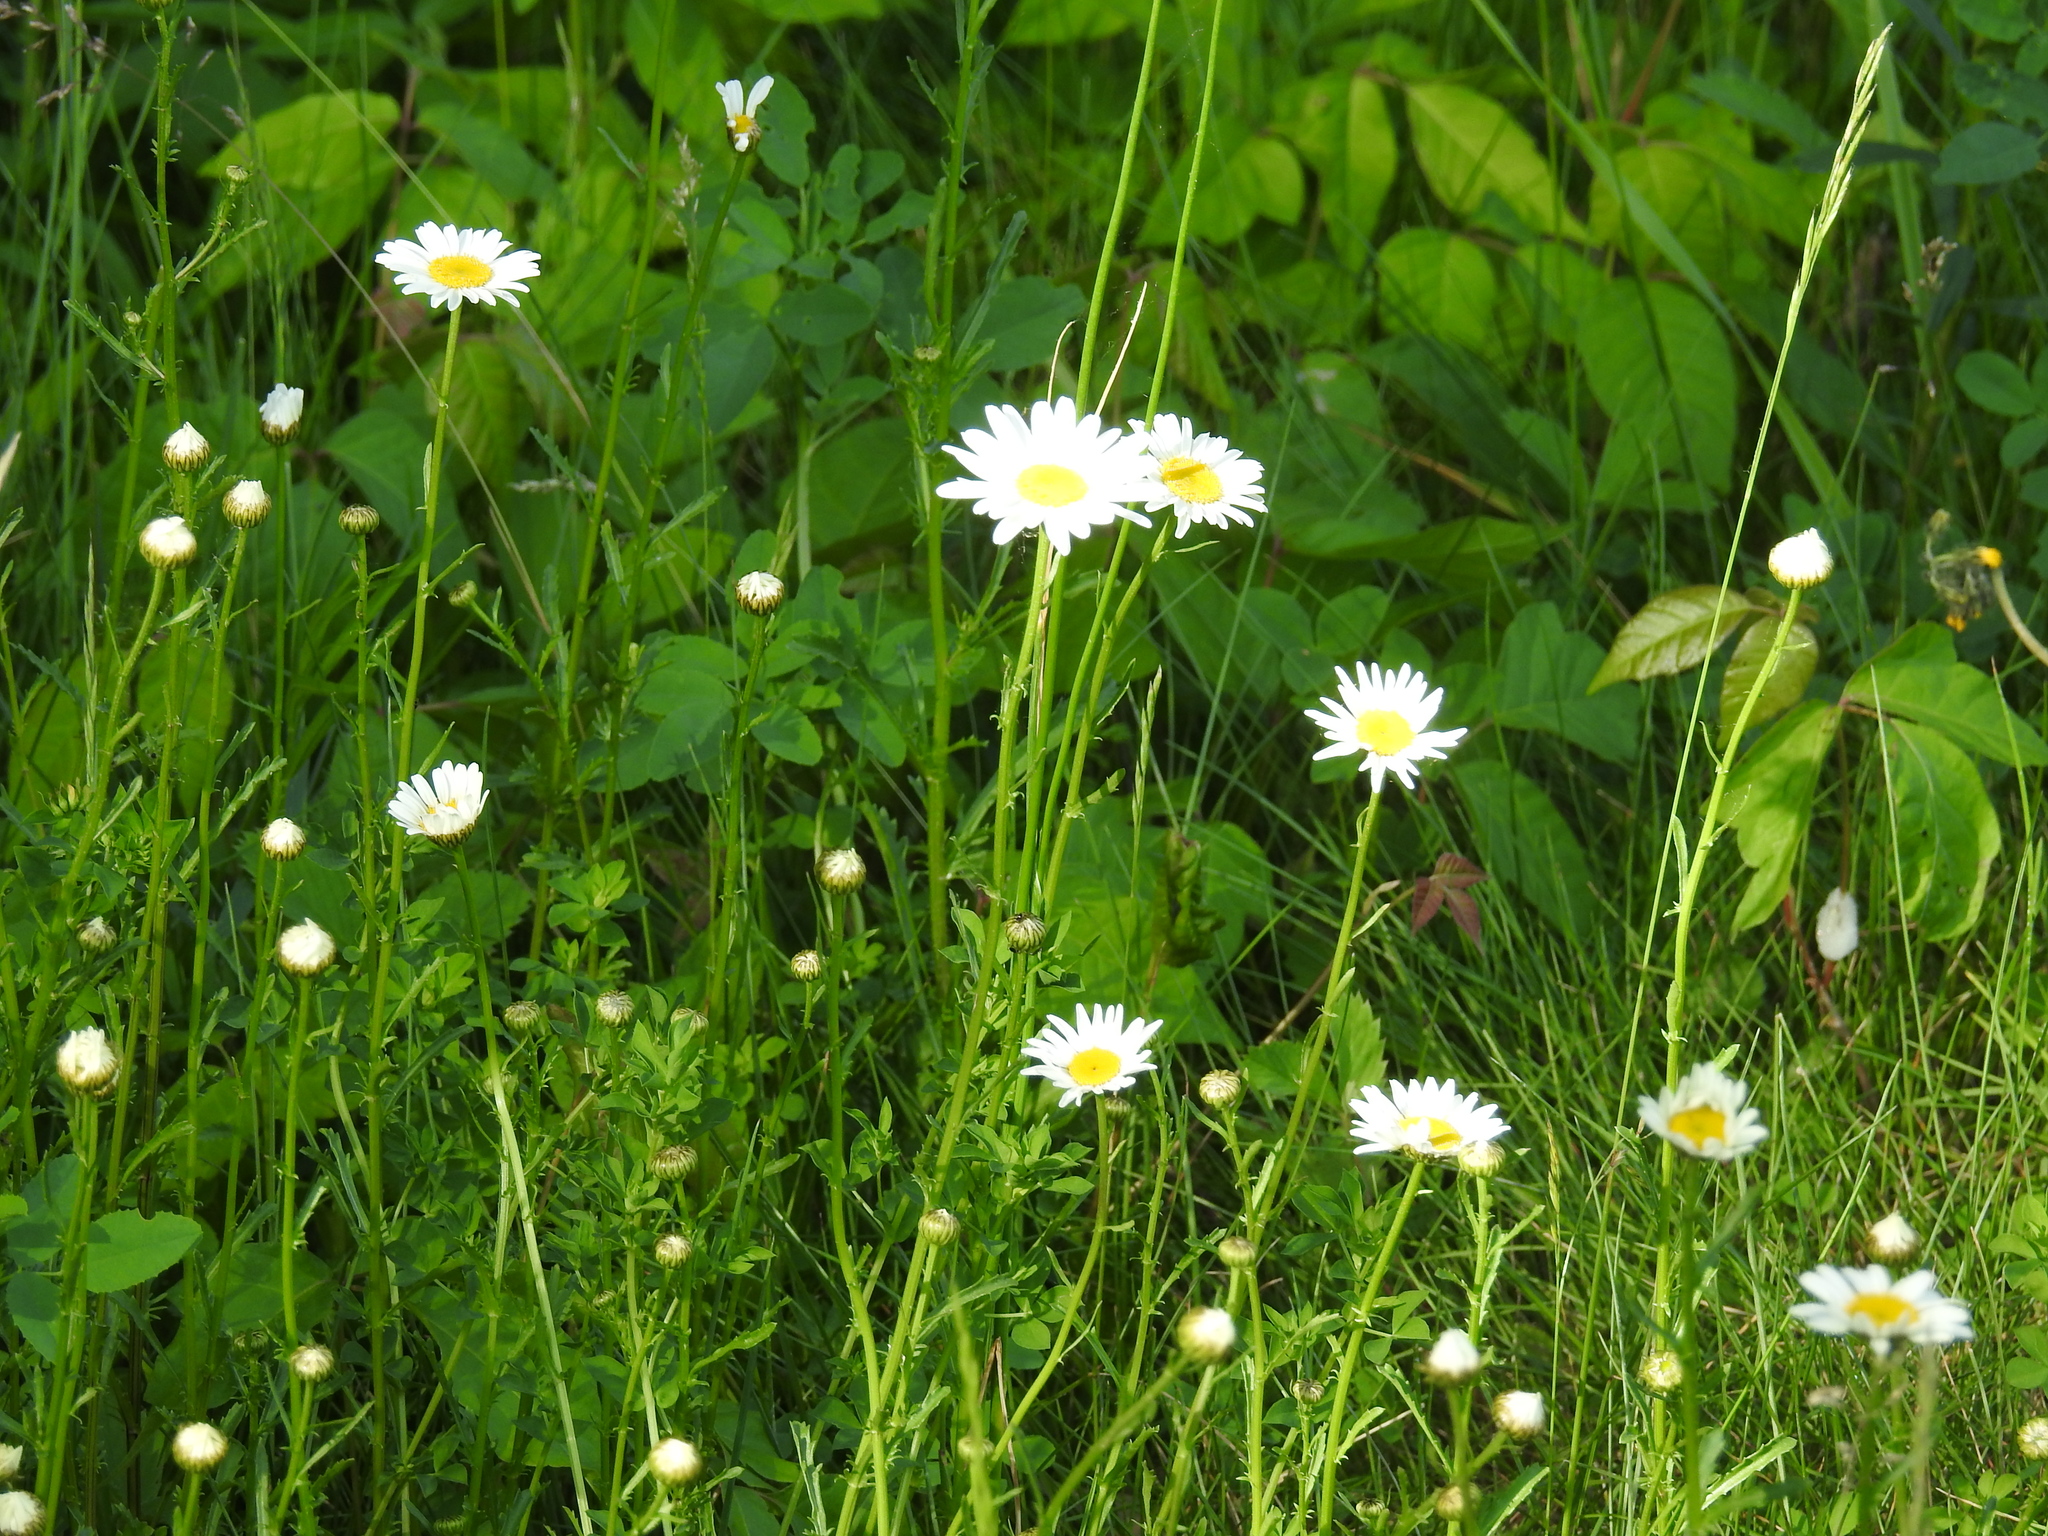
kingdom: Plantae
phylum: Tracheophyta
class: Magnoliopsida
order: Asterales
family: Asteraceae
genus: Leucanthemum
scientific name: Leucanthemum vulgare
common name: Oxeye daisy
